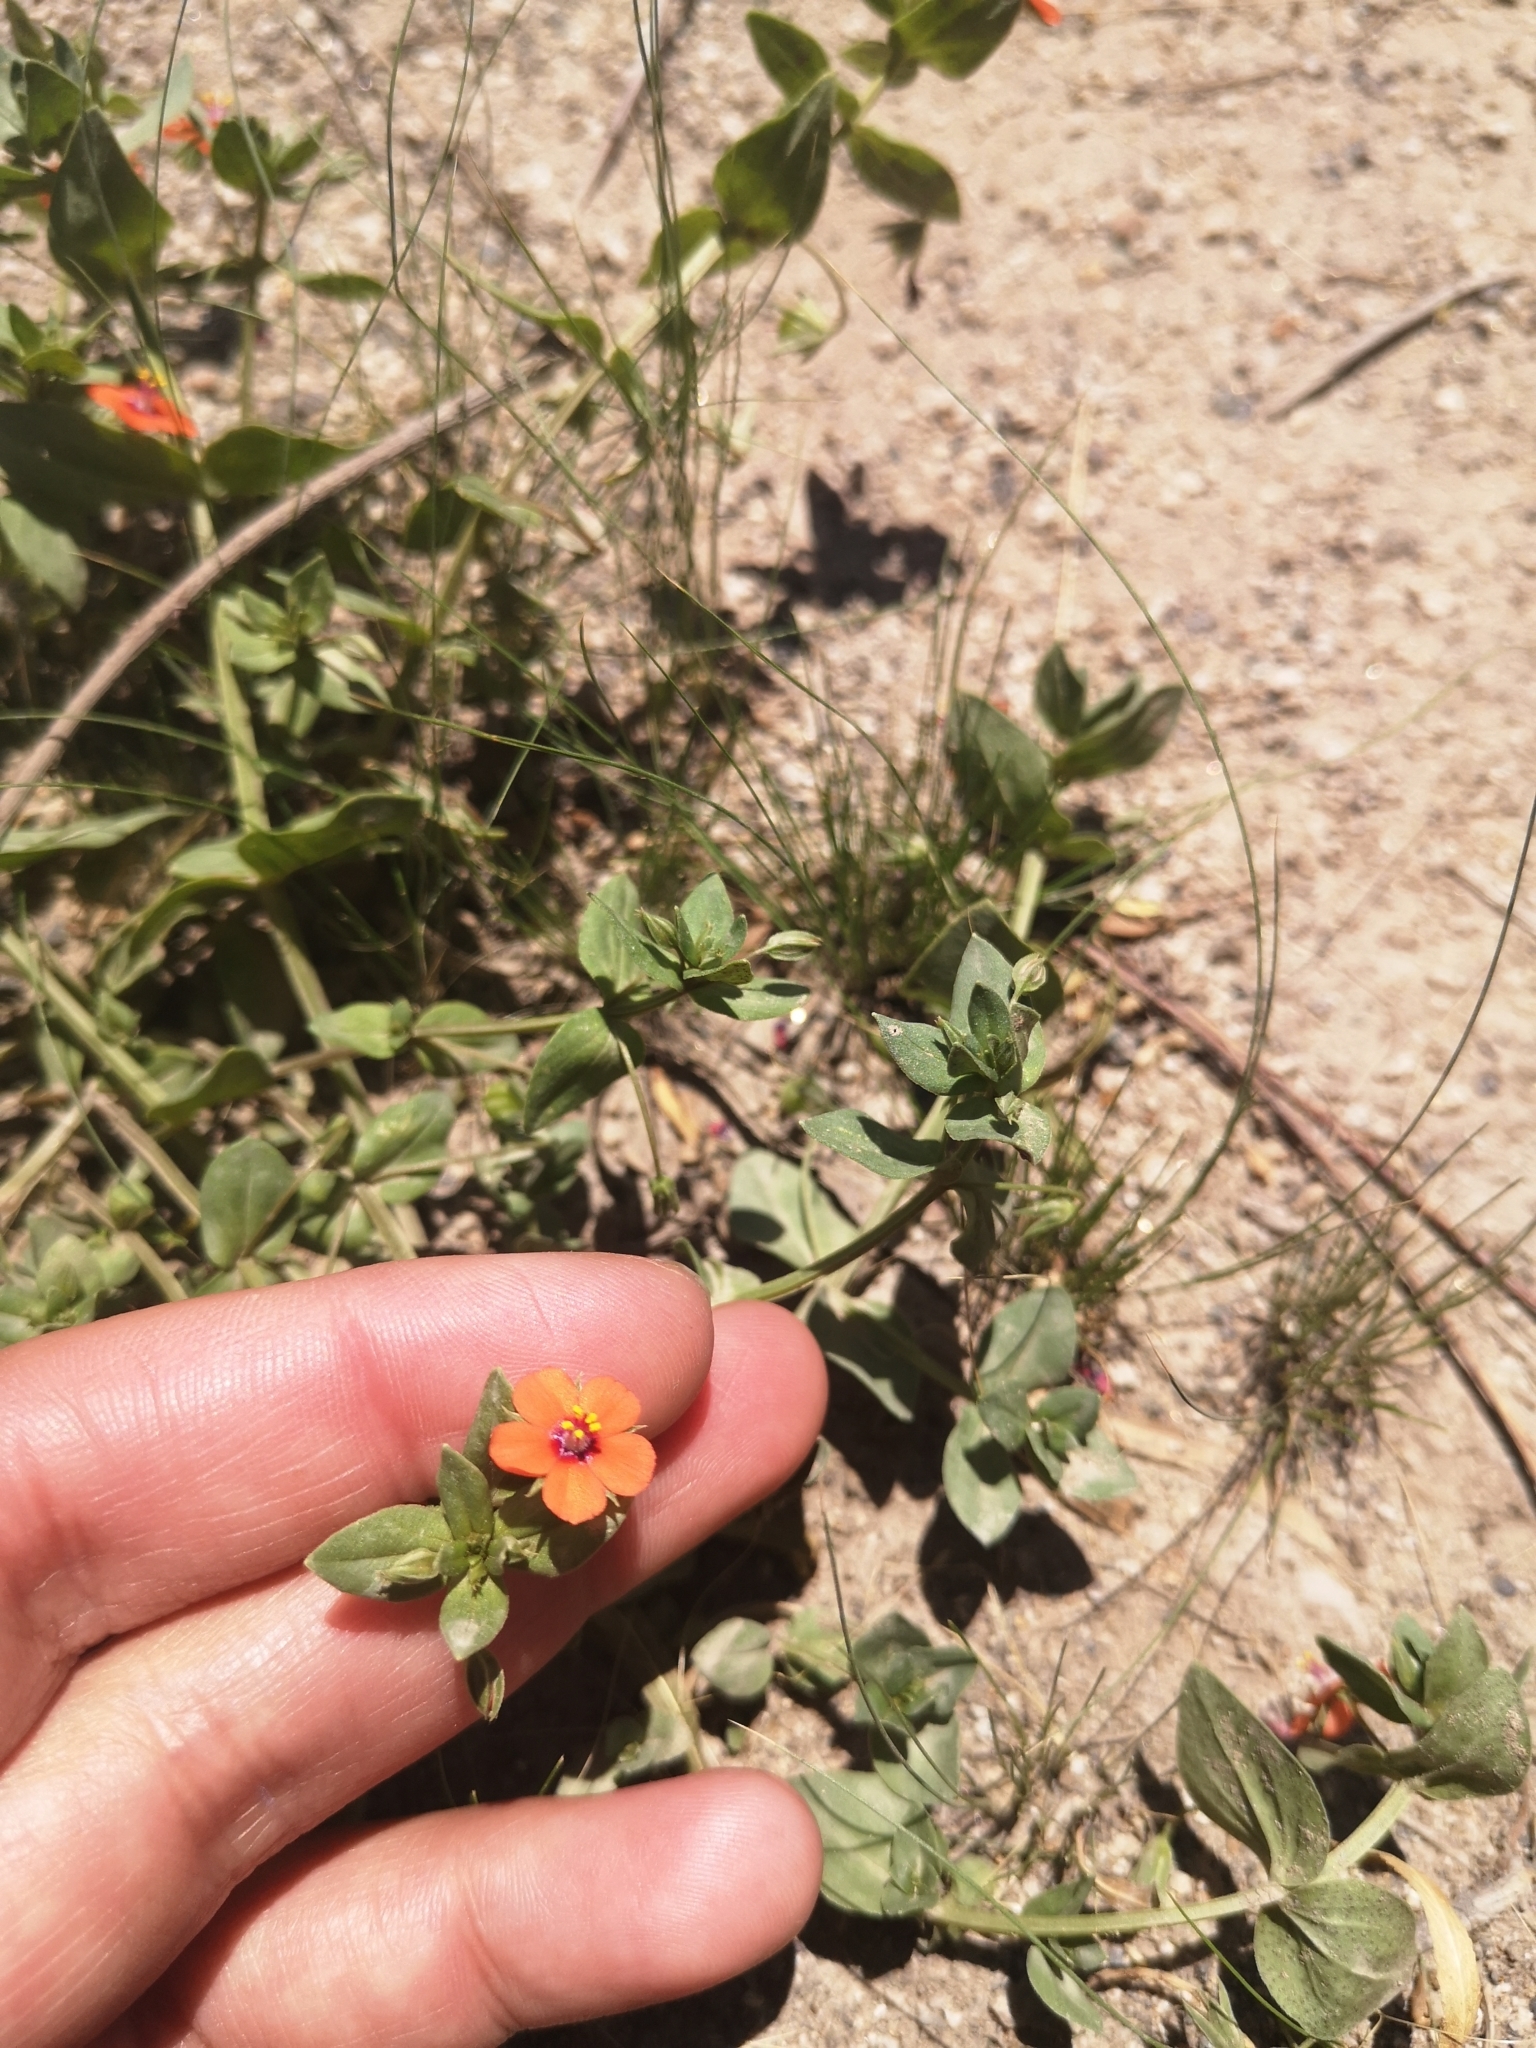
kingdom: Plantae
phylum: Tracheophyta
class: Magnoliopsida
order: Ericales
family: Primulaceae
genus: Lysimachia
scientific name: Lysimachia arvensis
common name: Scarlet pimpernel
